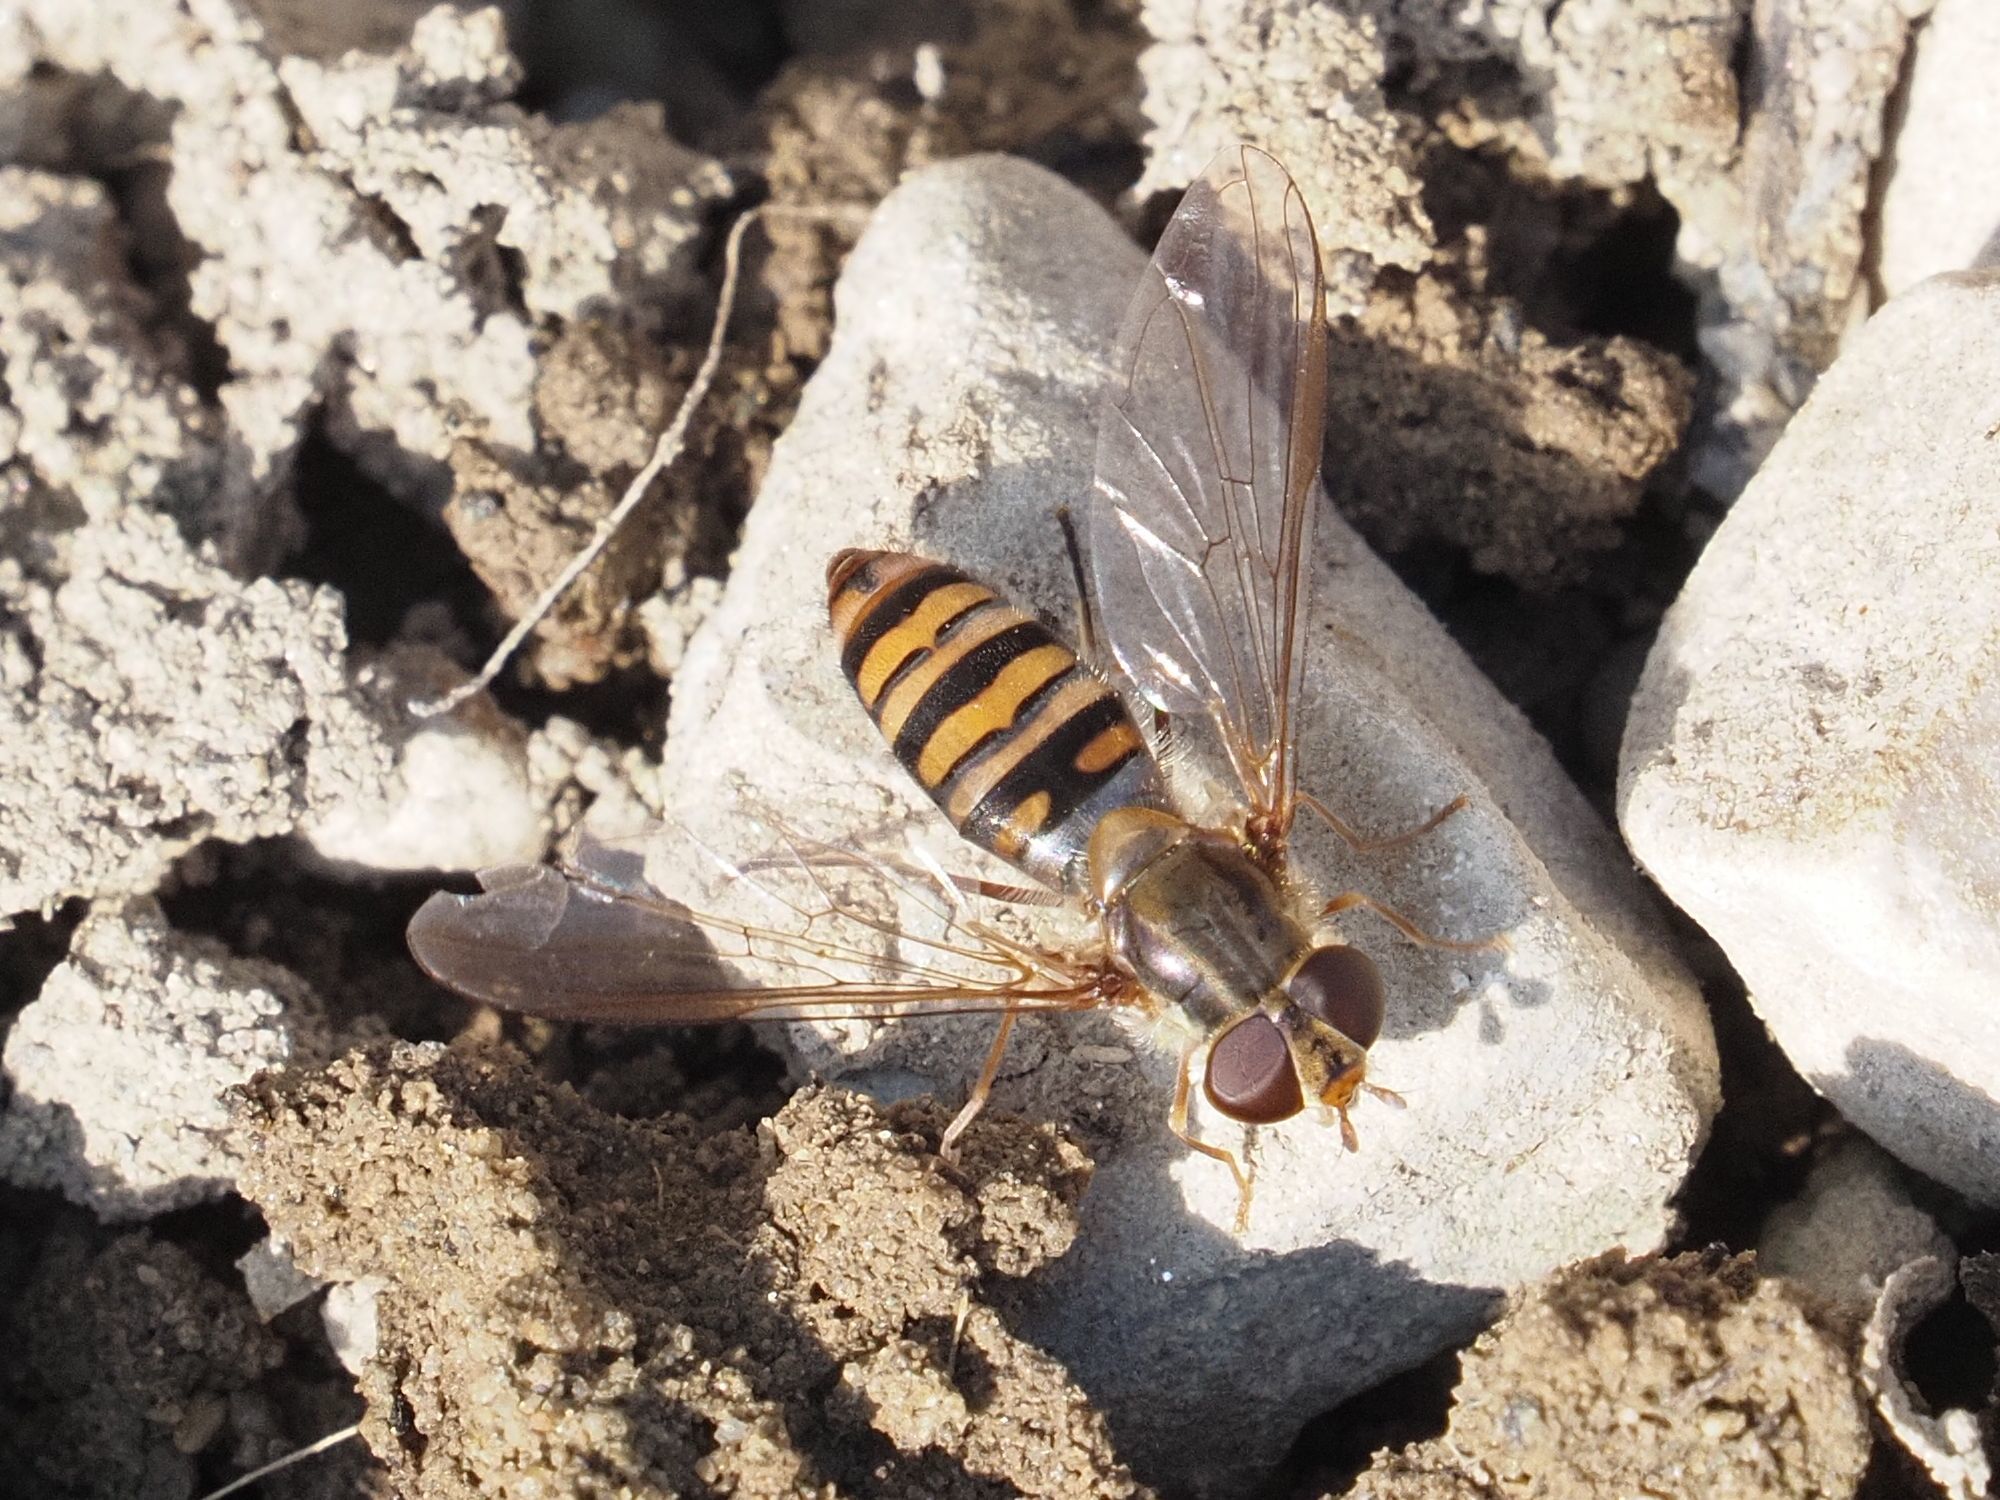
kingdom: Animalia
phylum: Arthropoda
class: Insecta
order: Diptera
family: Syrphidae
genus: Episyrphus
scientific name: Episyrphus balteatus
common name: Marmalade hoverfly
